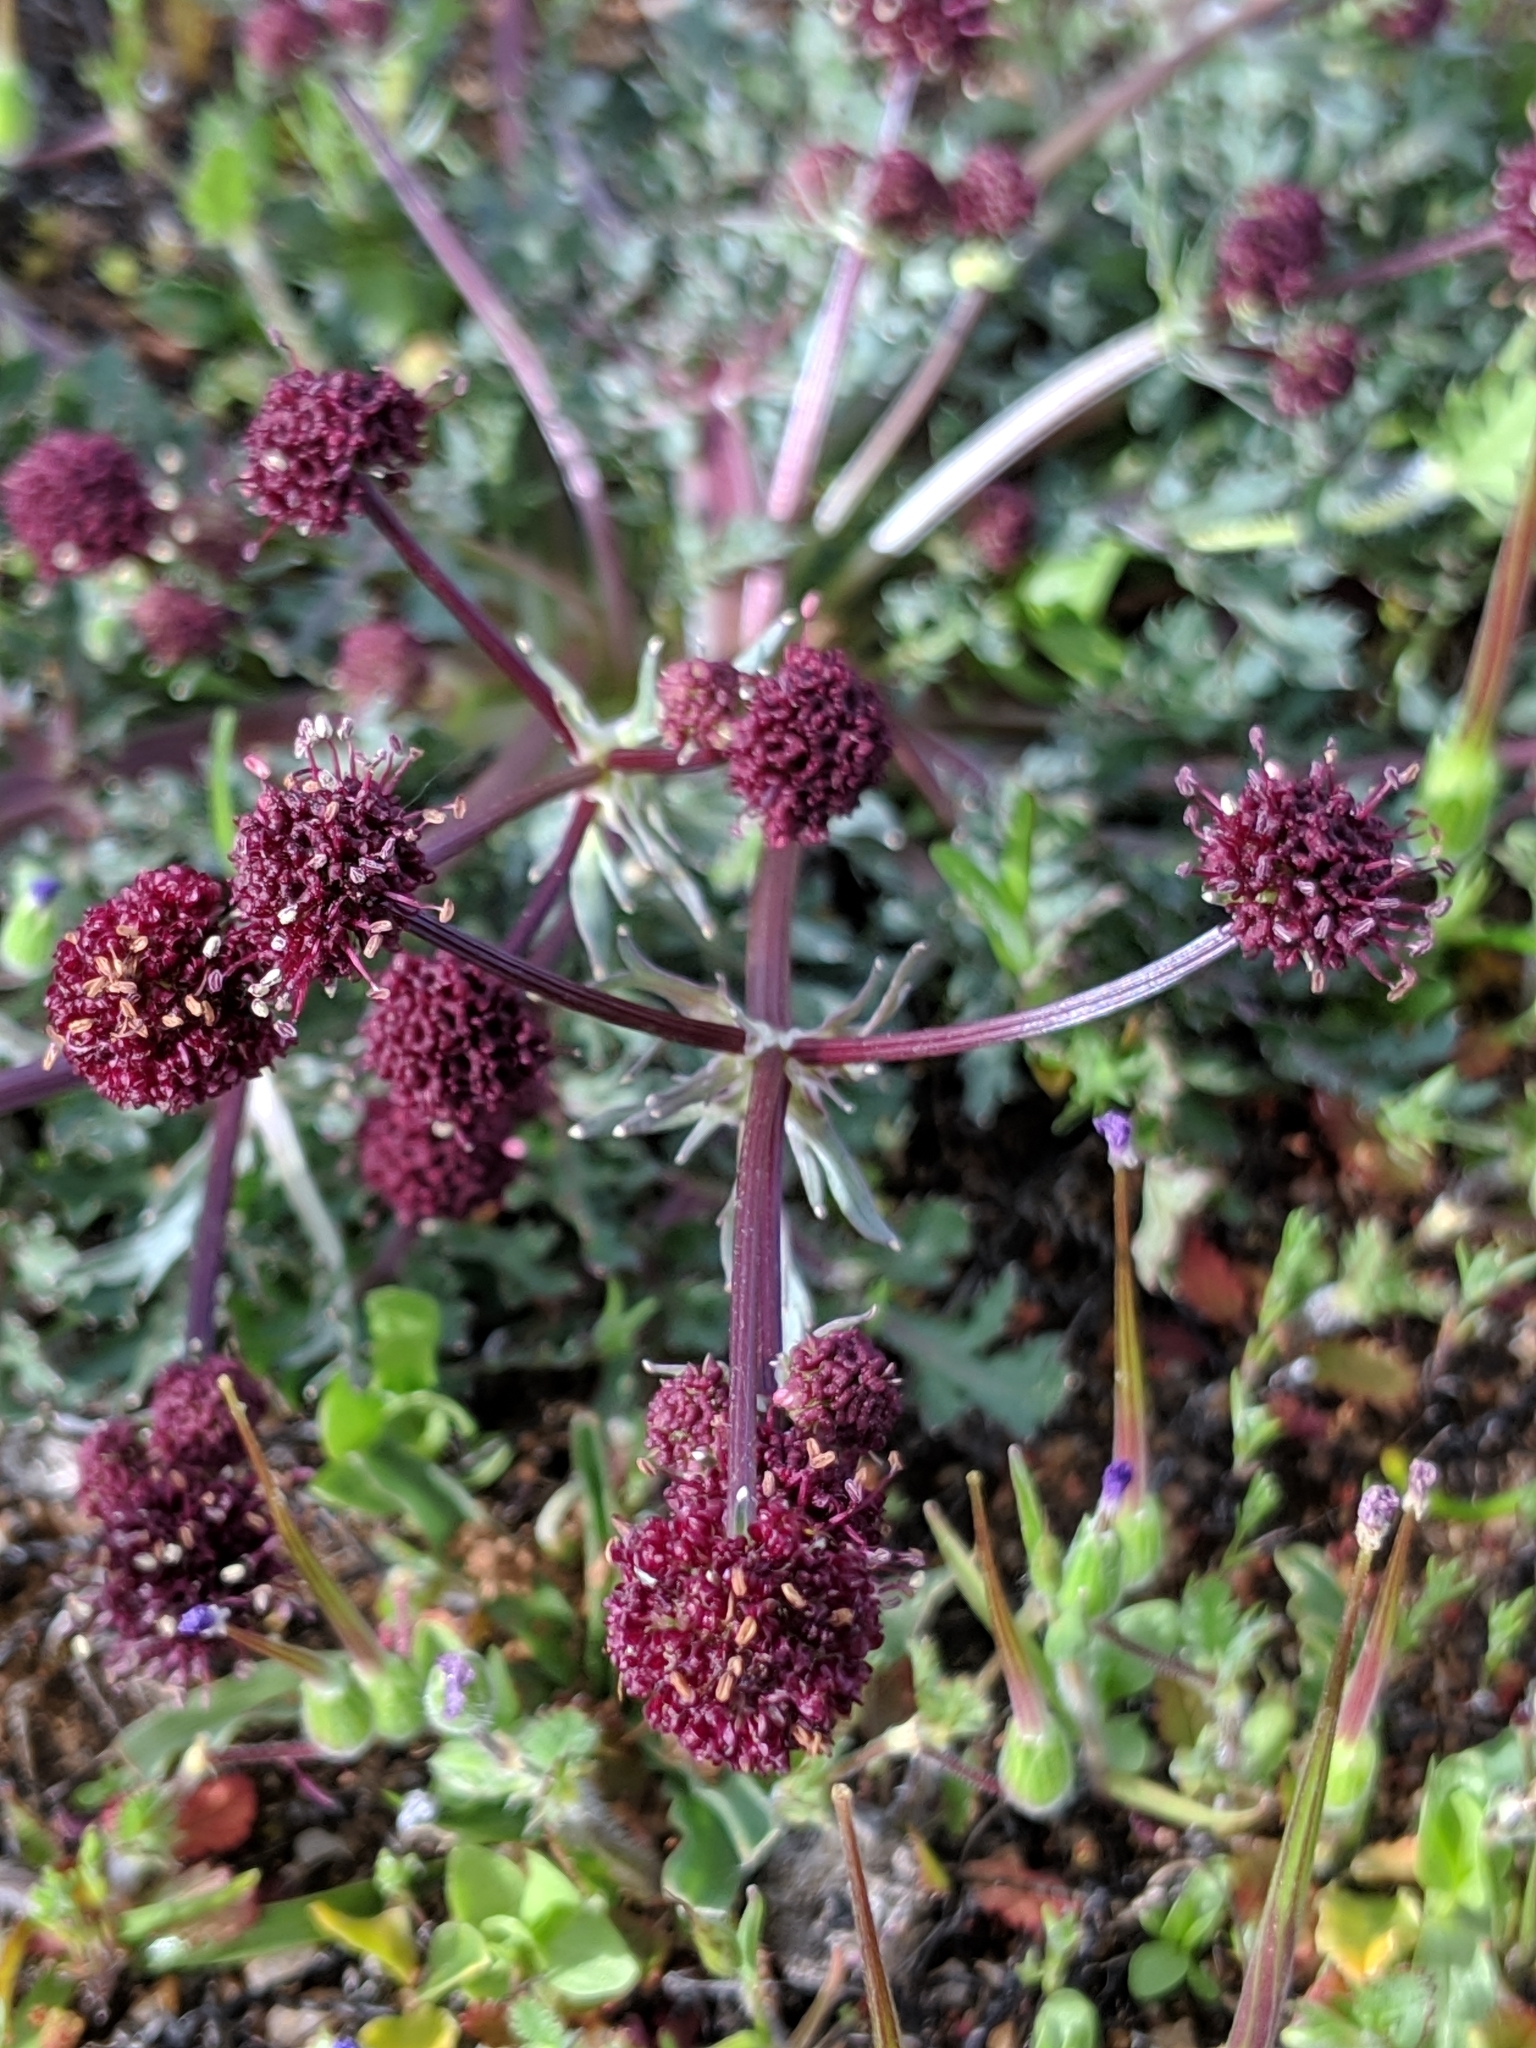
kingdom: Plantae
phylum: Tracheophyta
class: Magnoliopsida
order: Apiales
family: Apiaceae
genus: Sanicula
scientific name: Sanicula bipinnatifida
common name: Shoe-buttons
